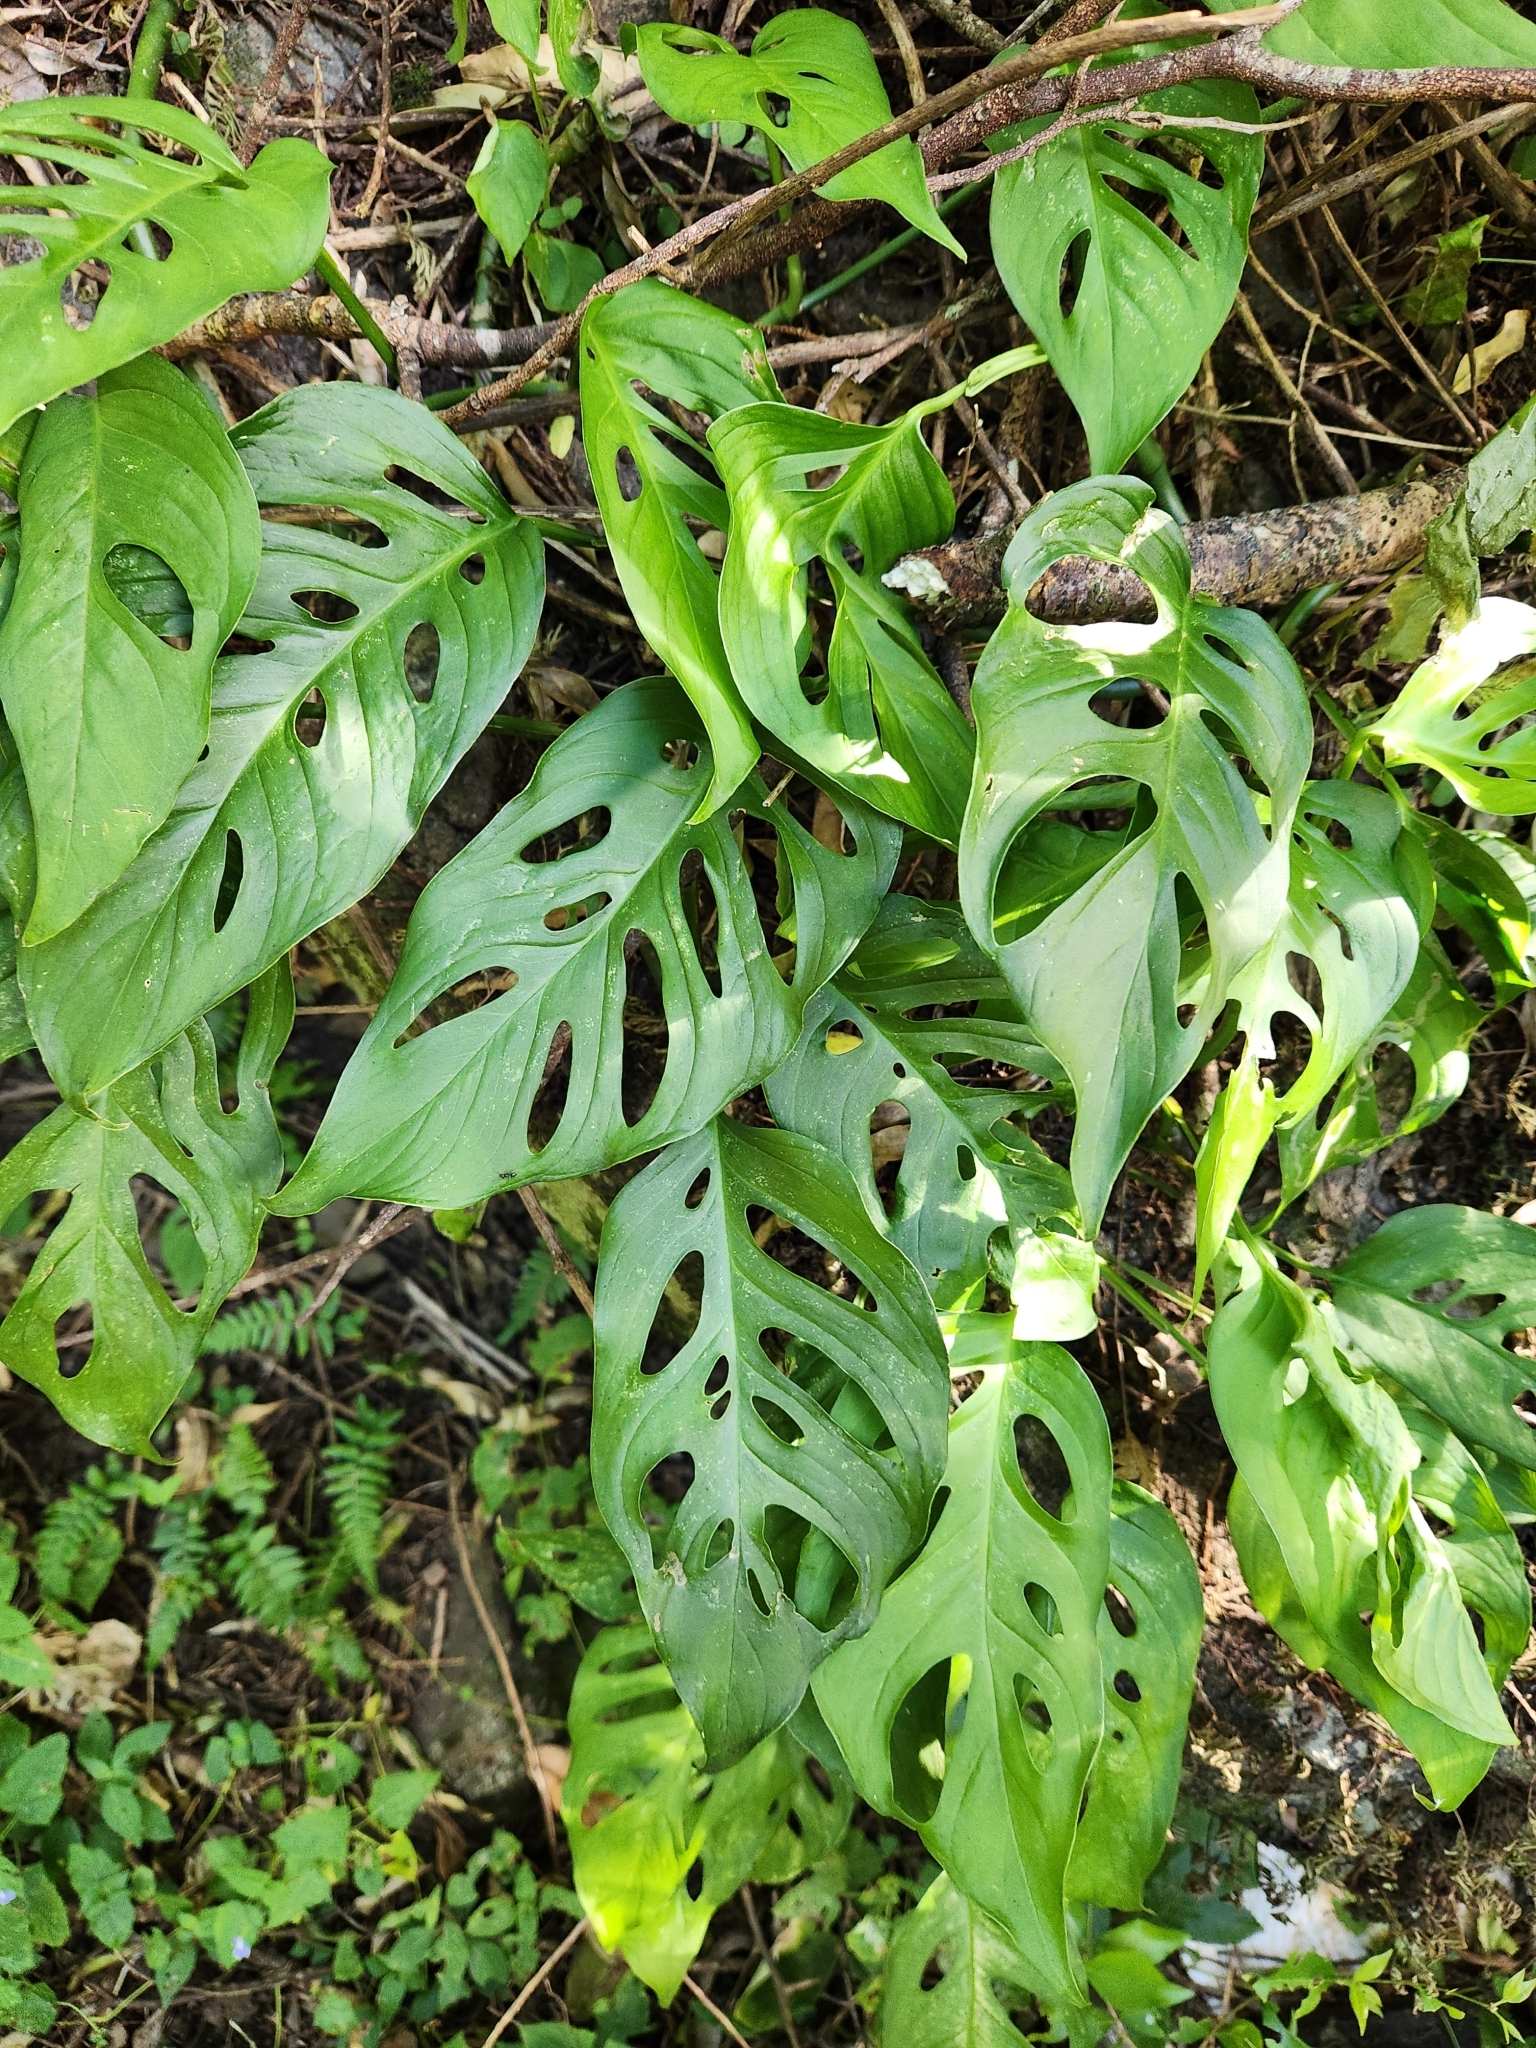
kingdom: Plantae
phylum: Tracheophyta
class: Liliopsida
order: Alismatales
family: Araceae
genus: Monstera
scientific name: Monstera adansonii
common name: Tarovine
